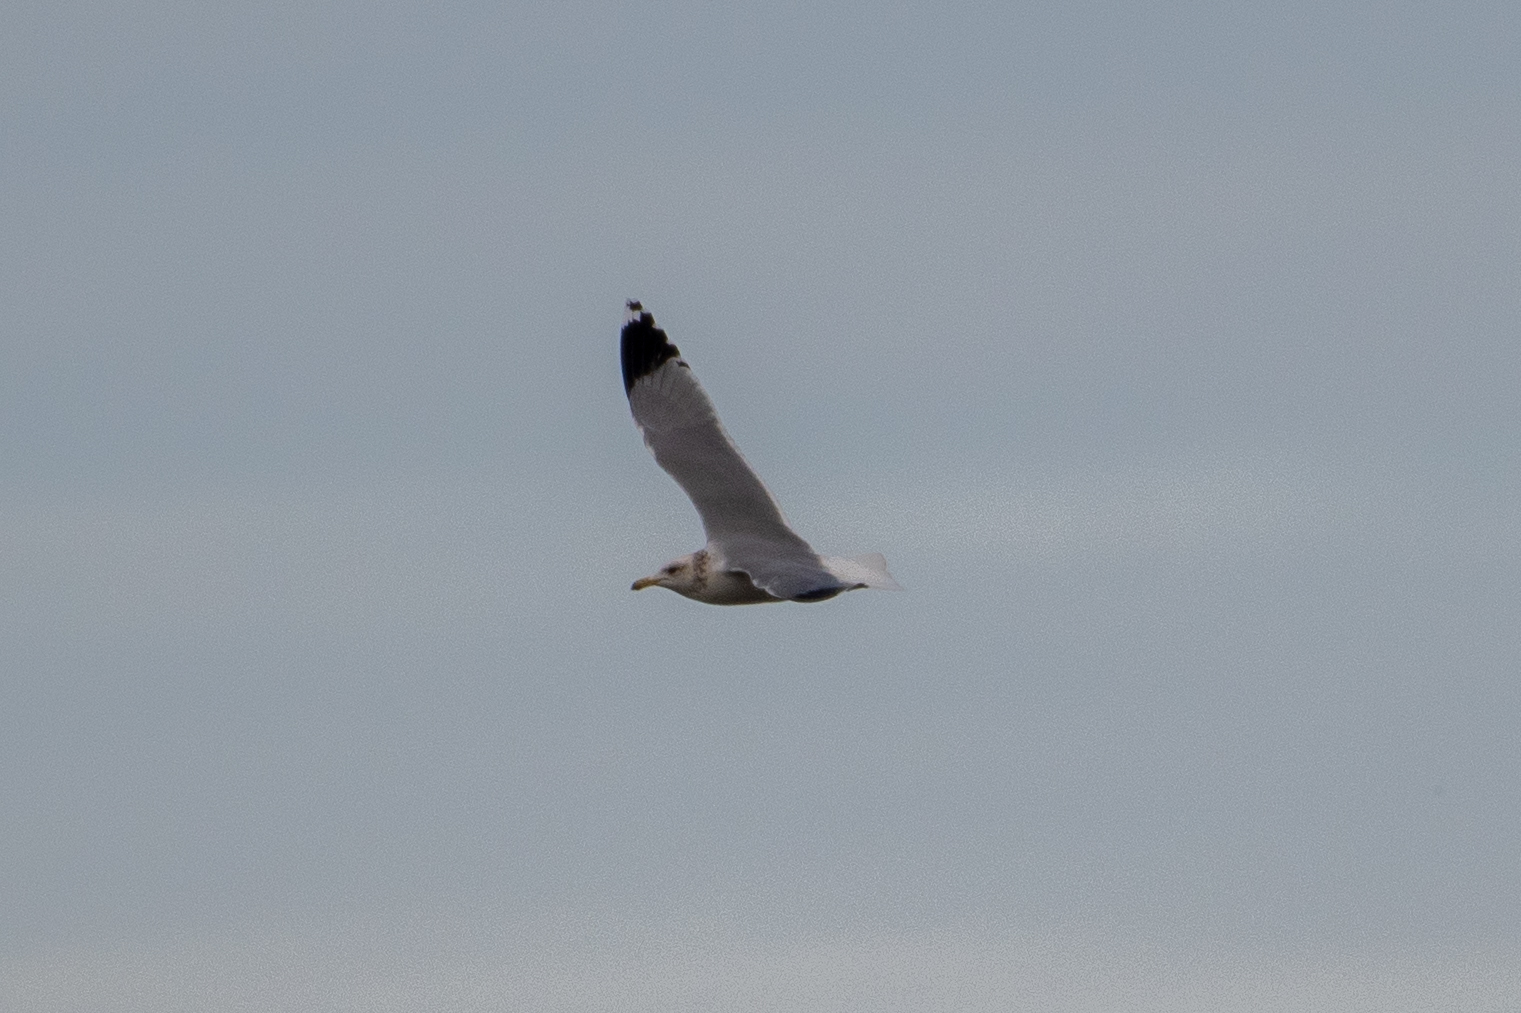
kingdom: Animalia
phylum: Chordata
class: Aves
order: Charadriiformes
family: Laridae
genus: Larus
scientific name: Larus californicus
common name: California gull
